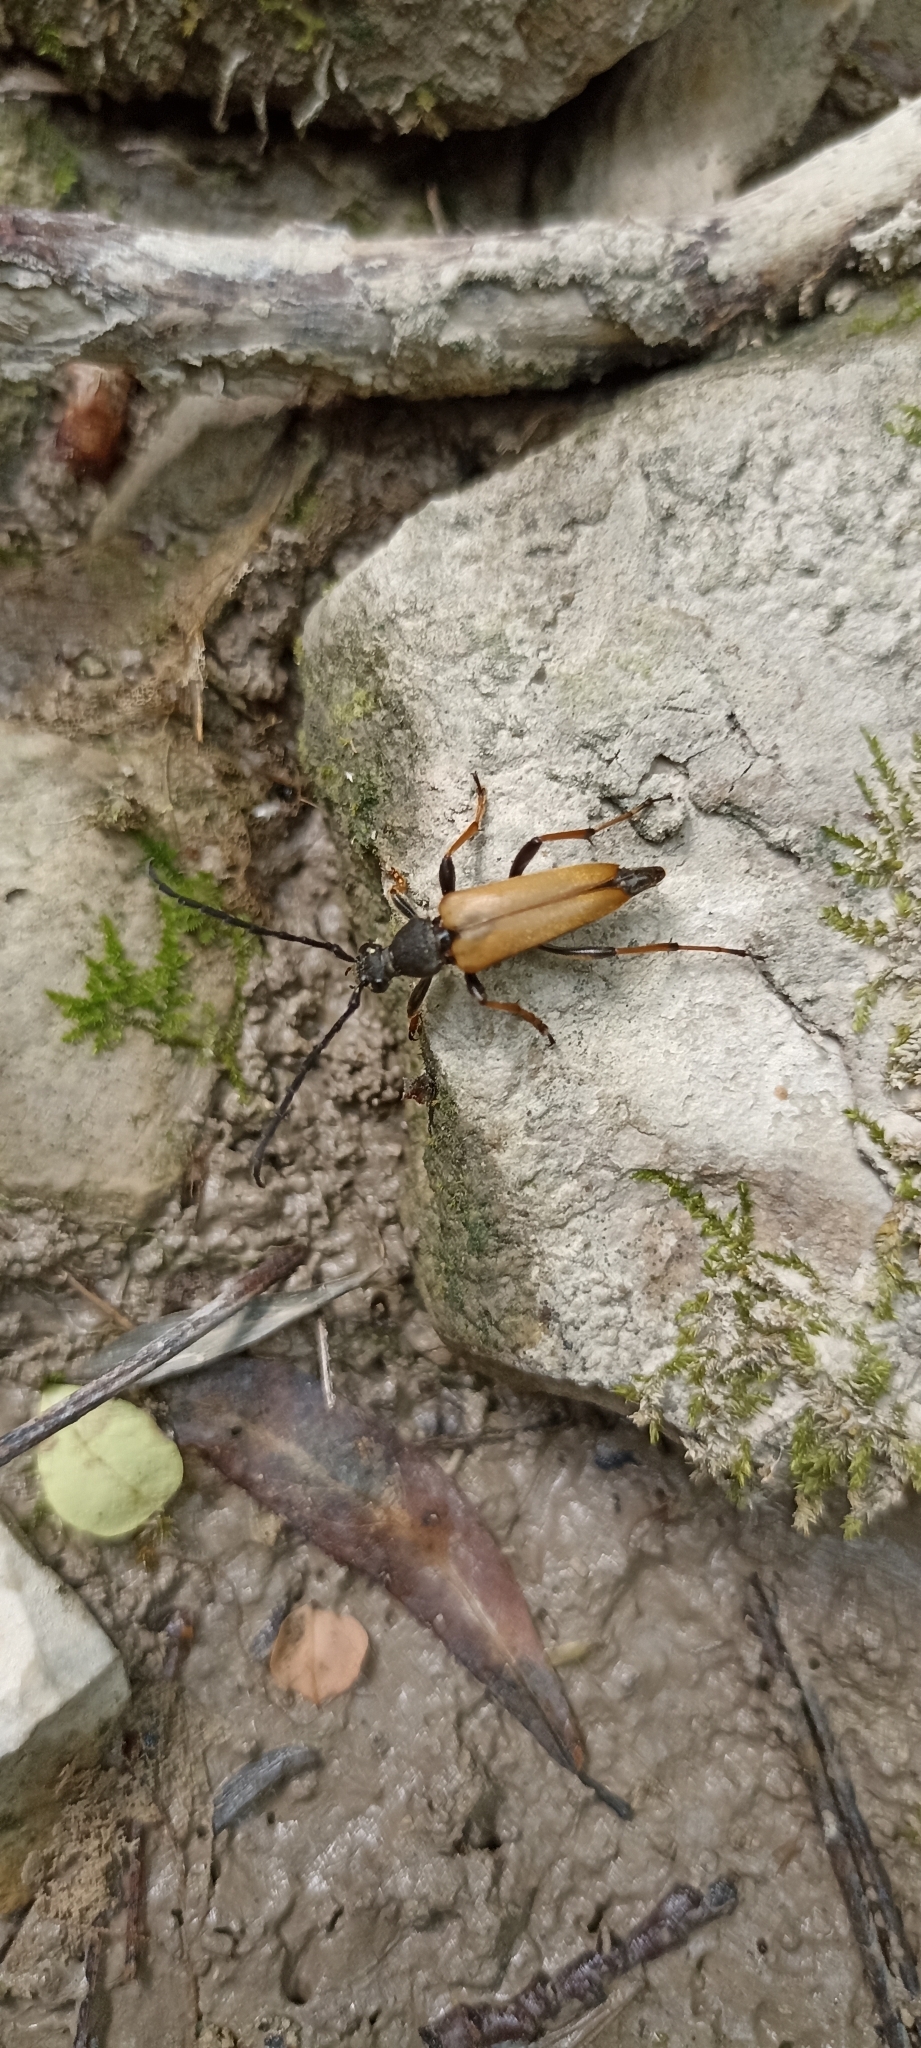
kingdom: Animalia
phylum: Arthropoda
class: Insecta
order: Coleoptera
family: Cerambycidae
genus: Stictoleptura
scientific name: Stictoleptura rubra
